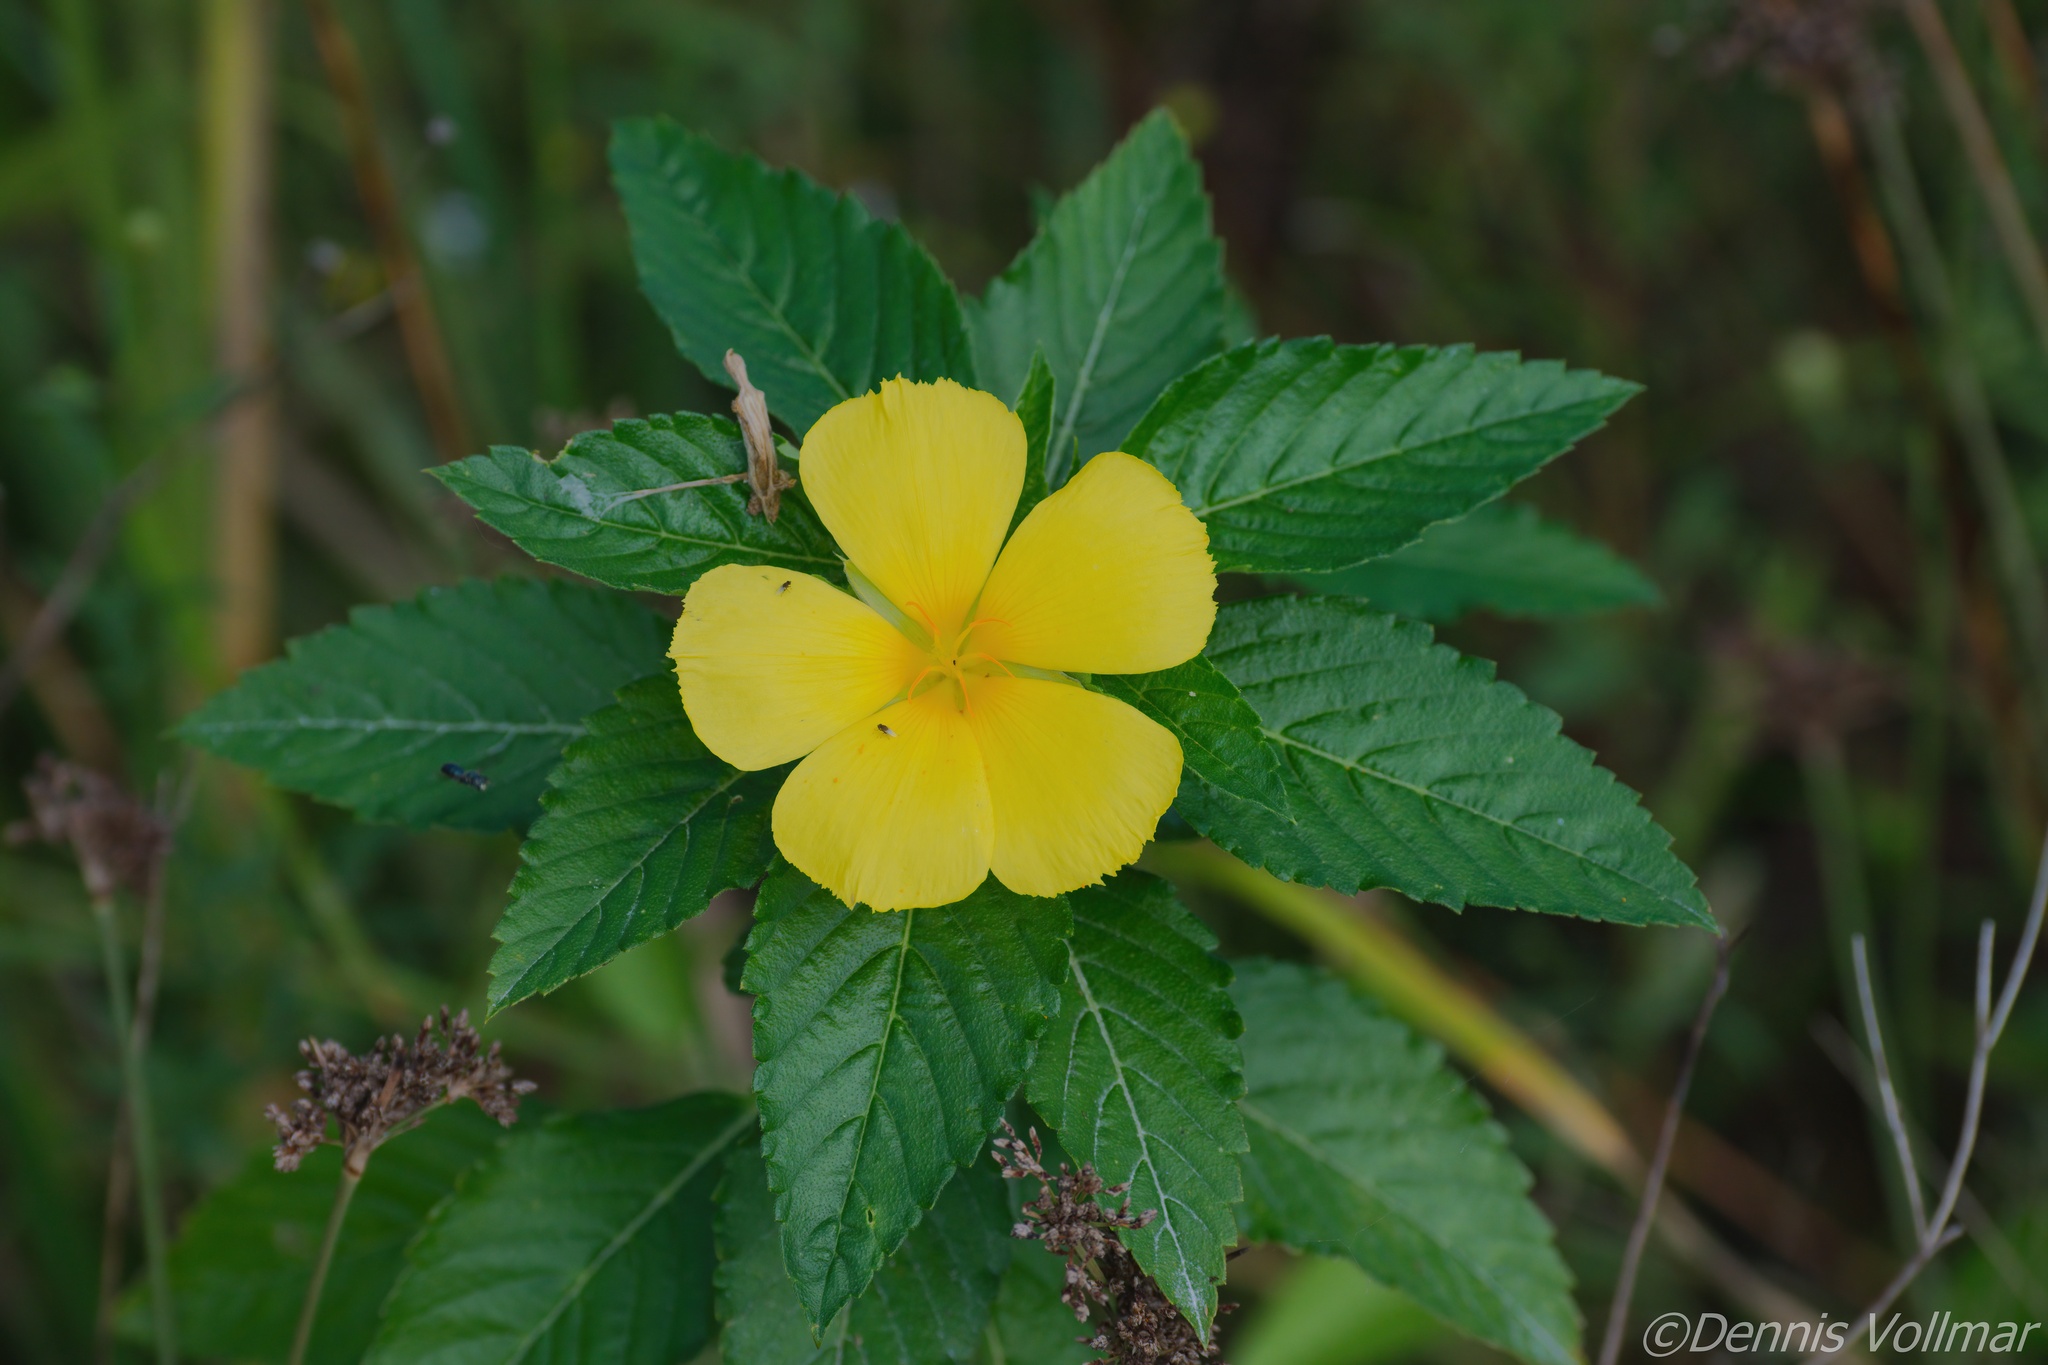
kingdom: Plantae
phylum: Tracheophyta
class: Magnoliopsida
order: Malpighiales
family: Turneraceae
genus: Turnera
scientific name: Turnera ulmifolia
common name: Ramgoat dashalong
